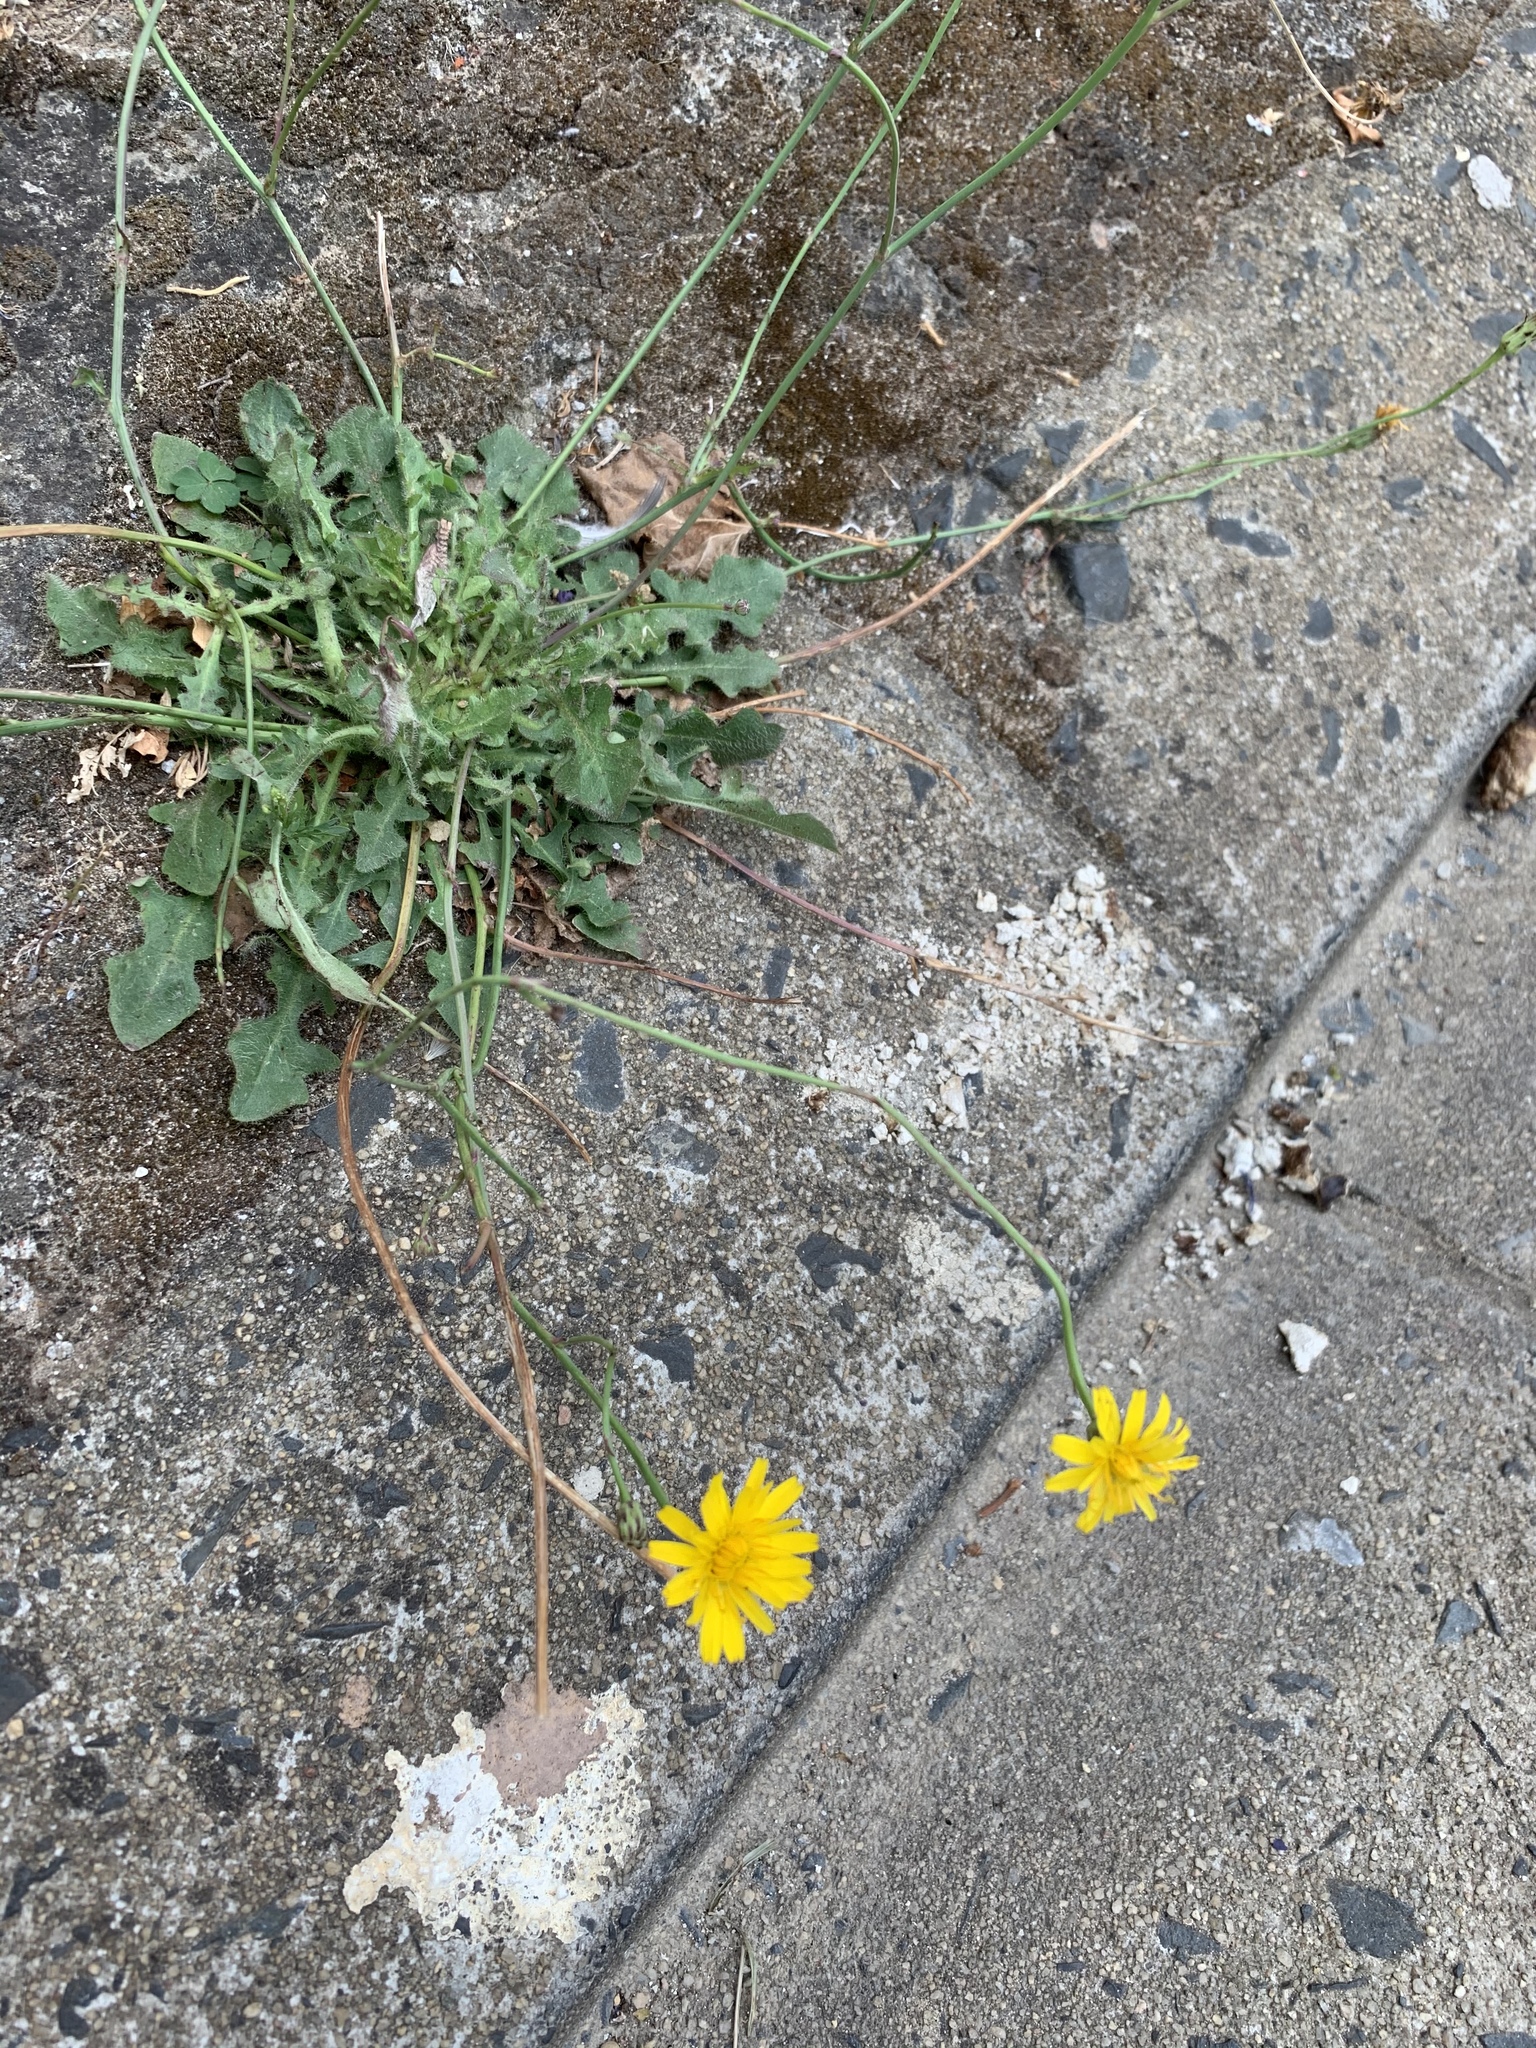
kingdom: Plantae
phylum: Tracheophyta
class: Magnoliopsida
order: Asterales
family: Asteraceae
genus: Hypochaeris
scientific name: Hypochaeris radicata
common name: Flatweed
